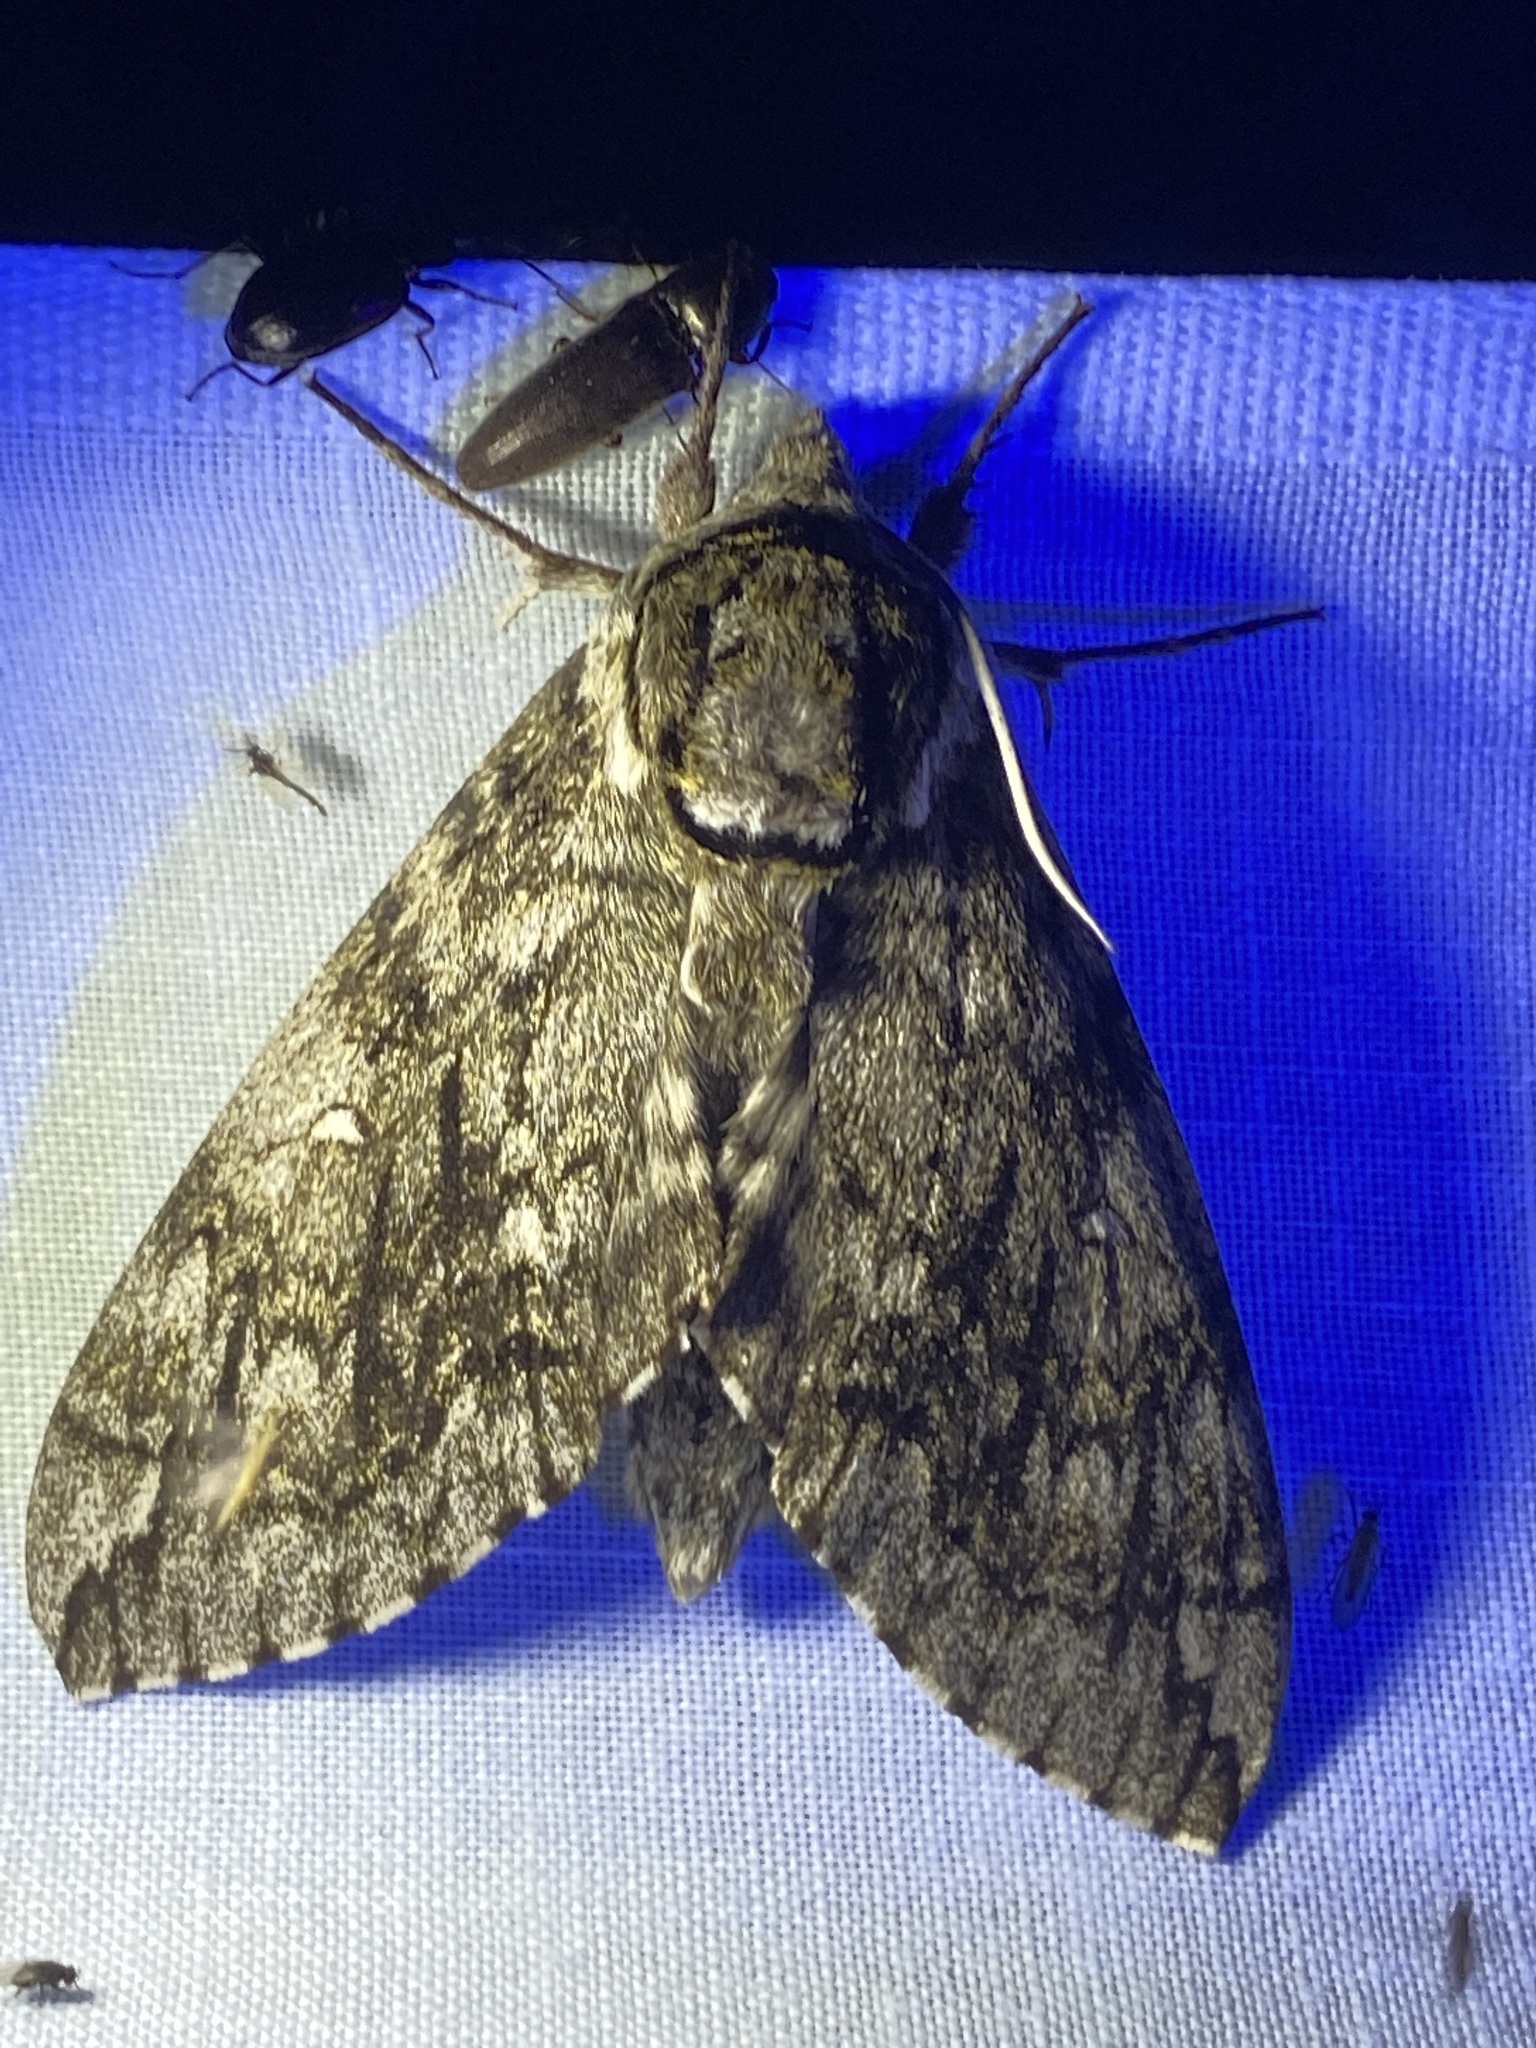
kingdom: Animalia
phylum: Arthropoda
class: Insecta
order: Lepidoptera
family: Sphingidae
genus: Ceratomia
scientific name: Ceratomia undulosa
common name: Waved sphinx
